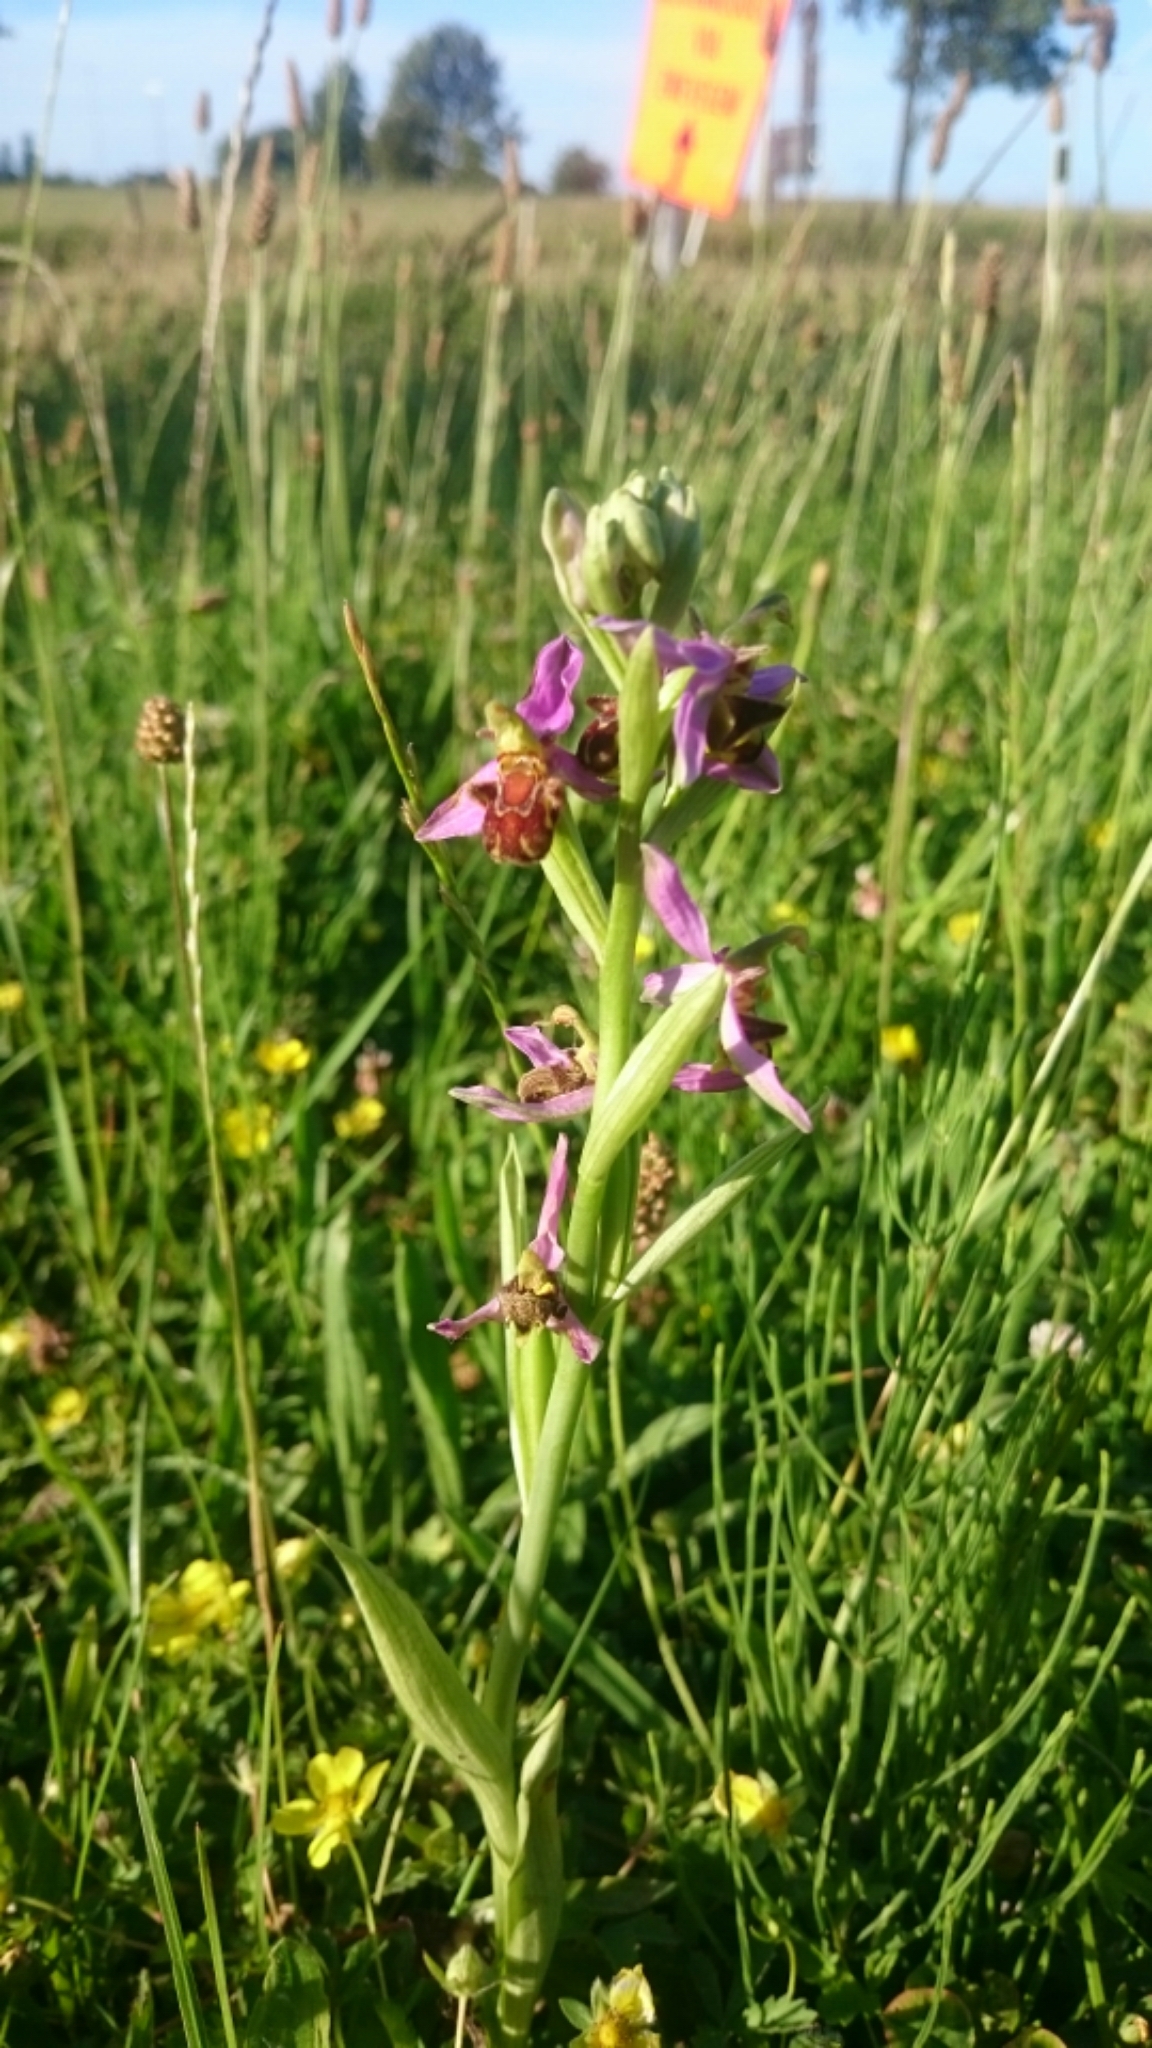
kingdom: Plantae
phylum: Tracheophyta
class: Liliopsida
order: Asparagales
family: Orchidaceae
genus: Ophrys
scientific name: Ophrys apifera
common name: Bee orchid
